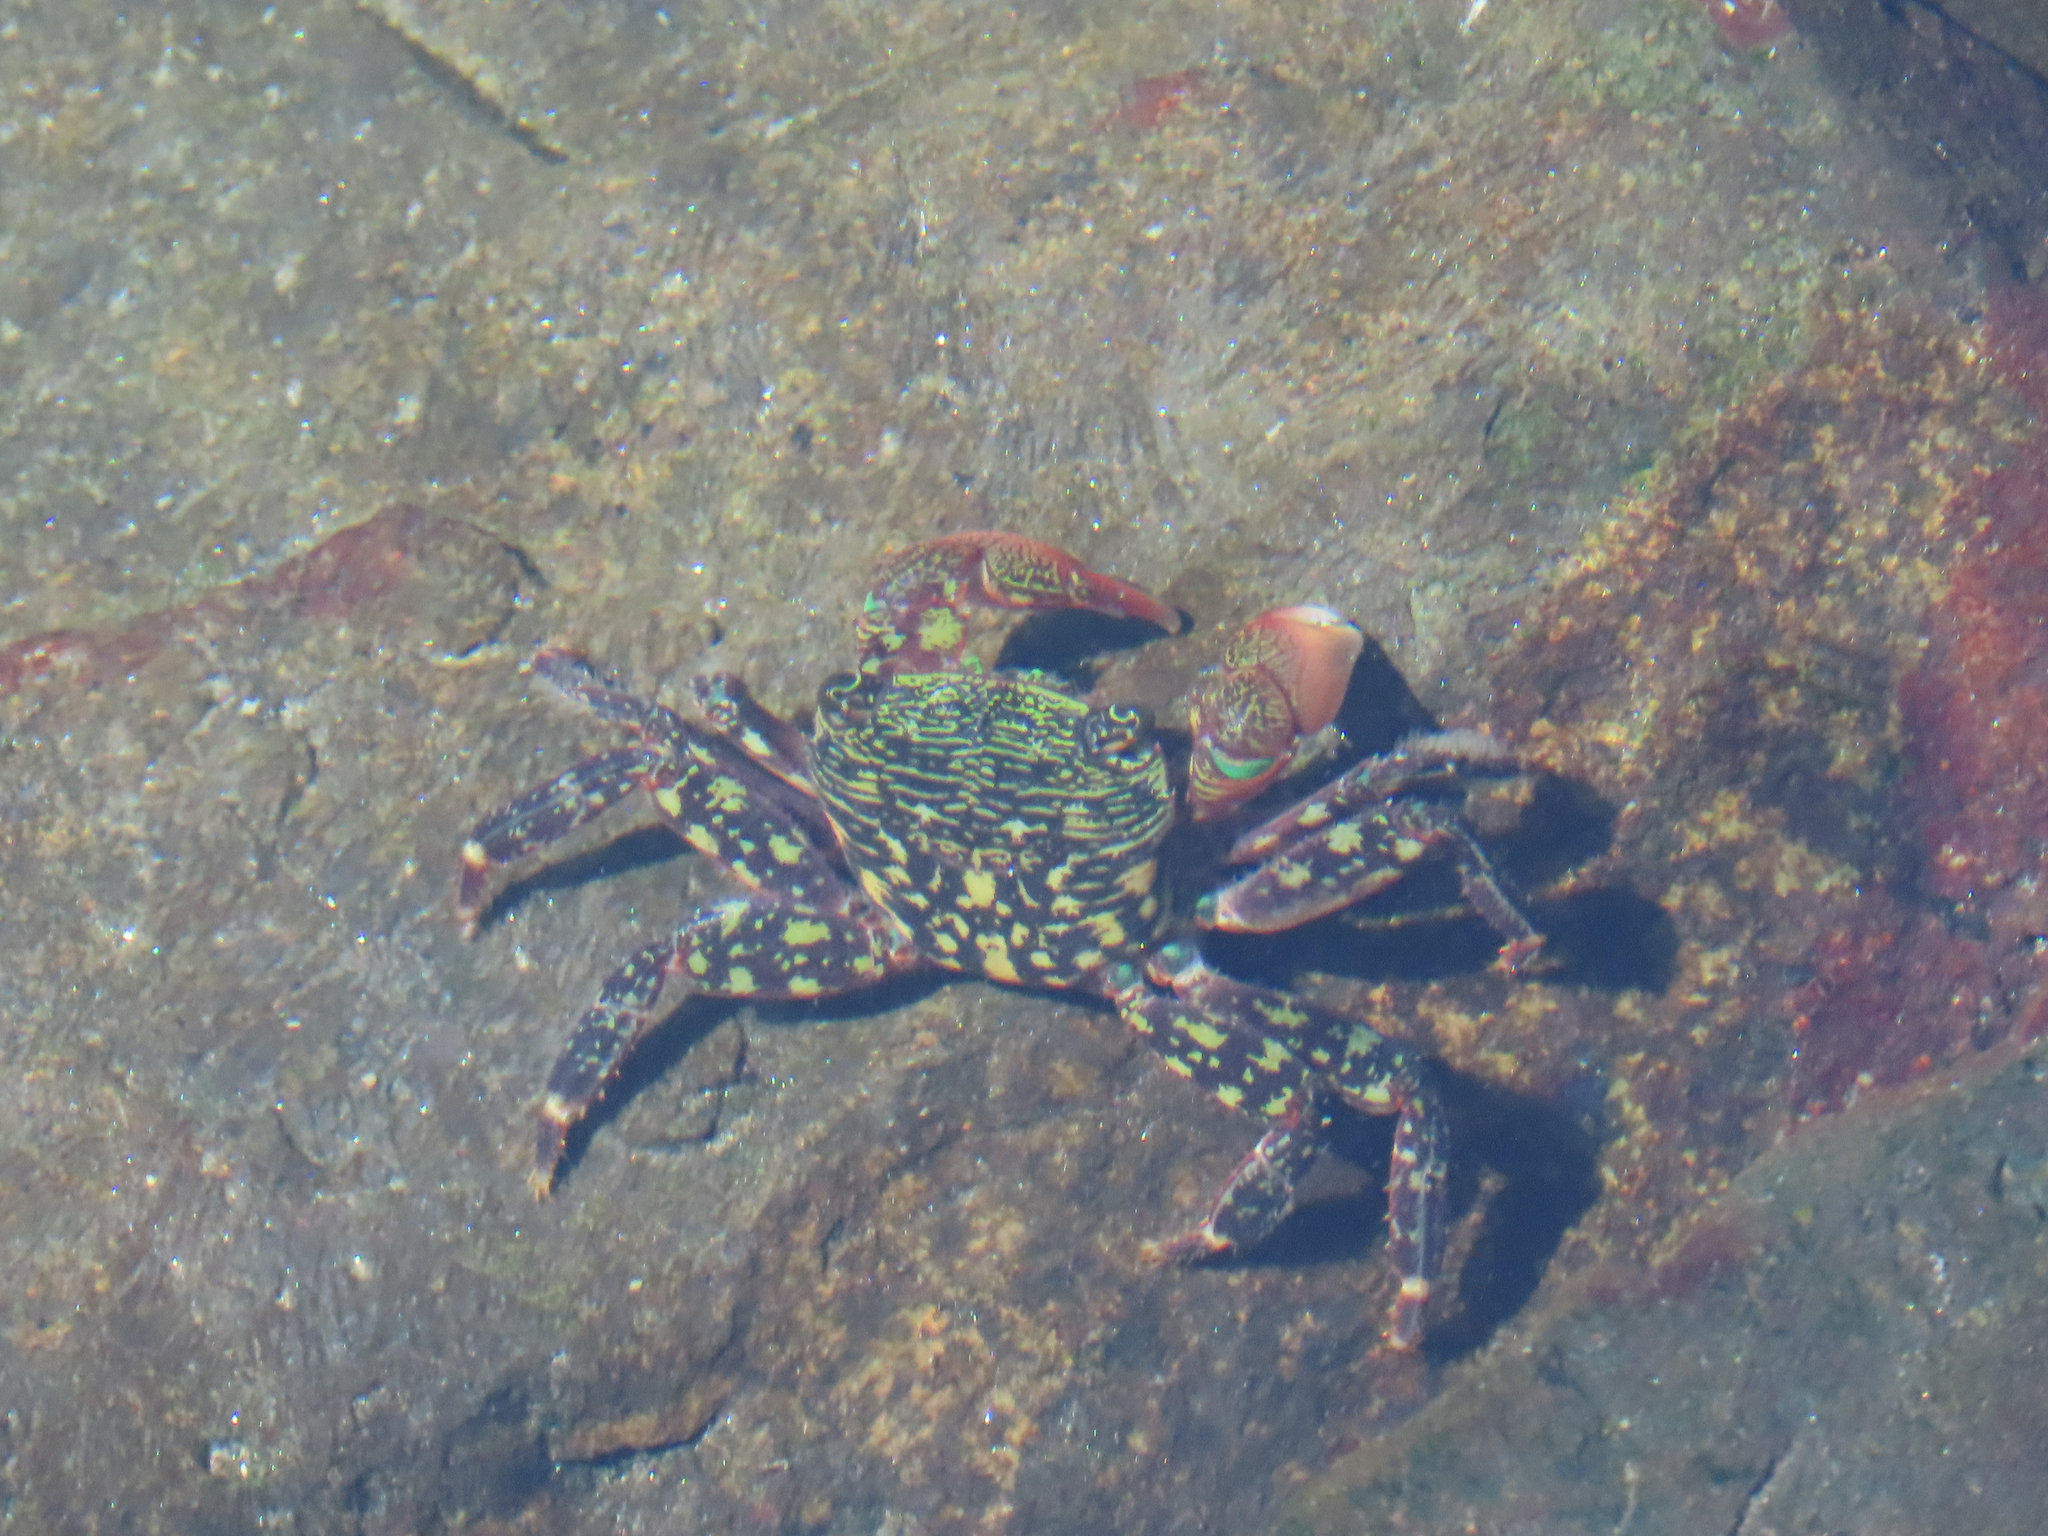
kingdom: Animalia
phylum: Arthropoda
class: Malacostraca
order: Decapoda
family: Grapsidae
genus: Pachygrapsus
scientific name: Pachygrapsus crassipes
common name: Striped shore crab
